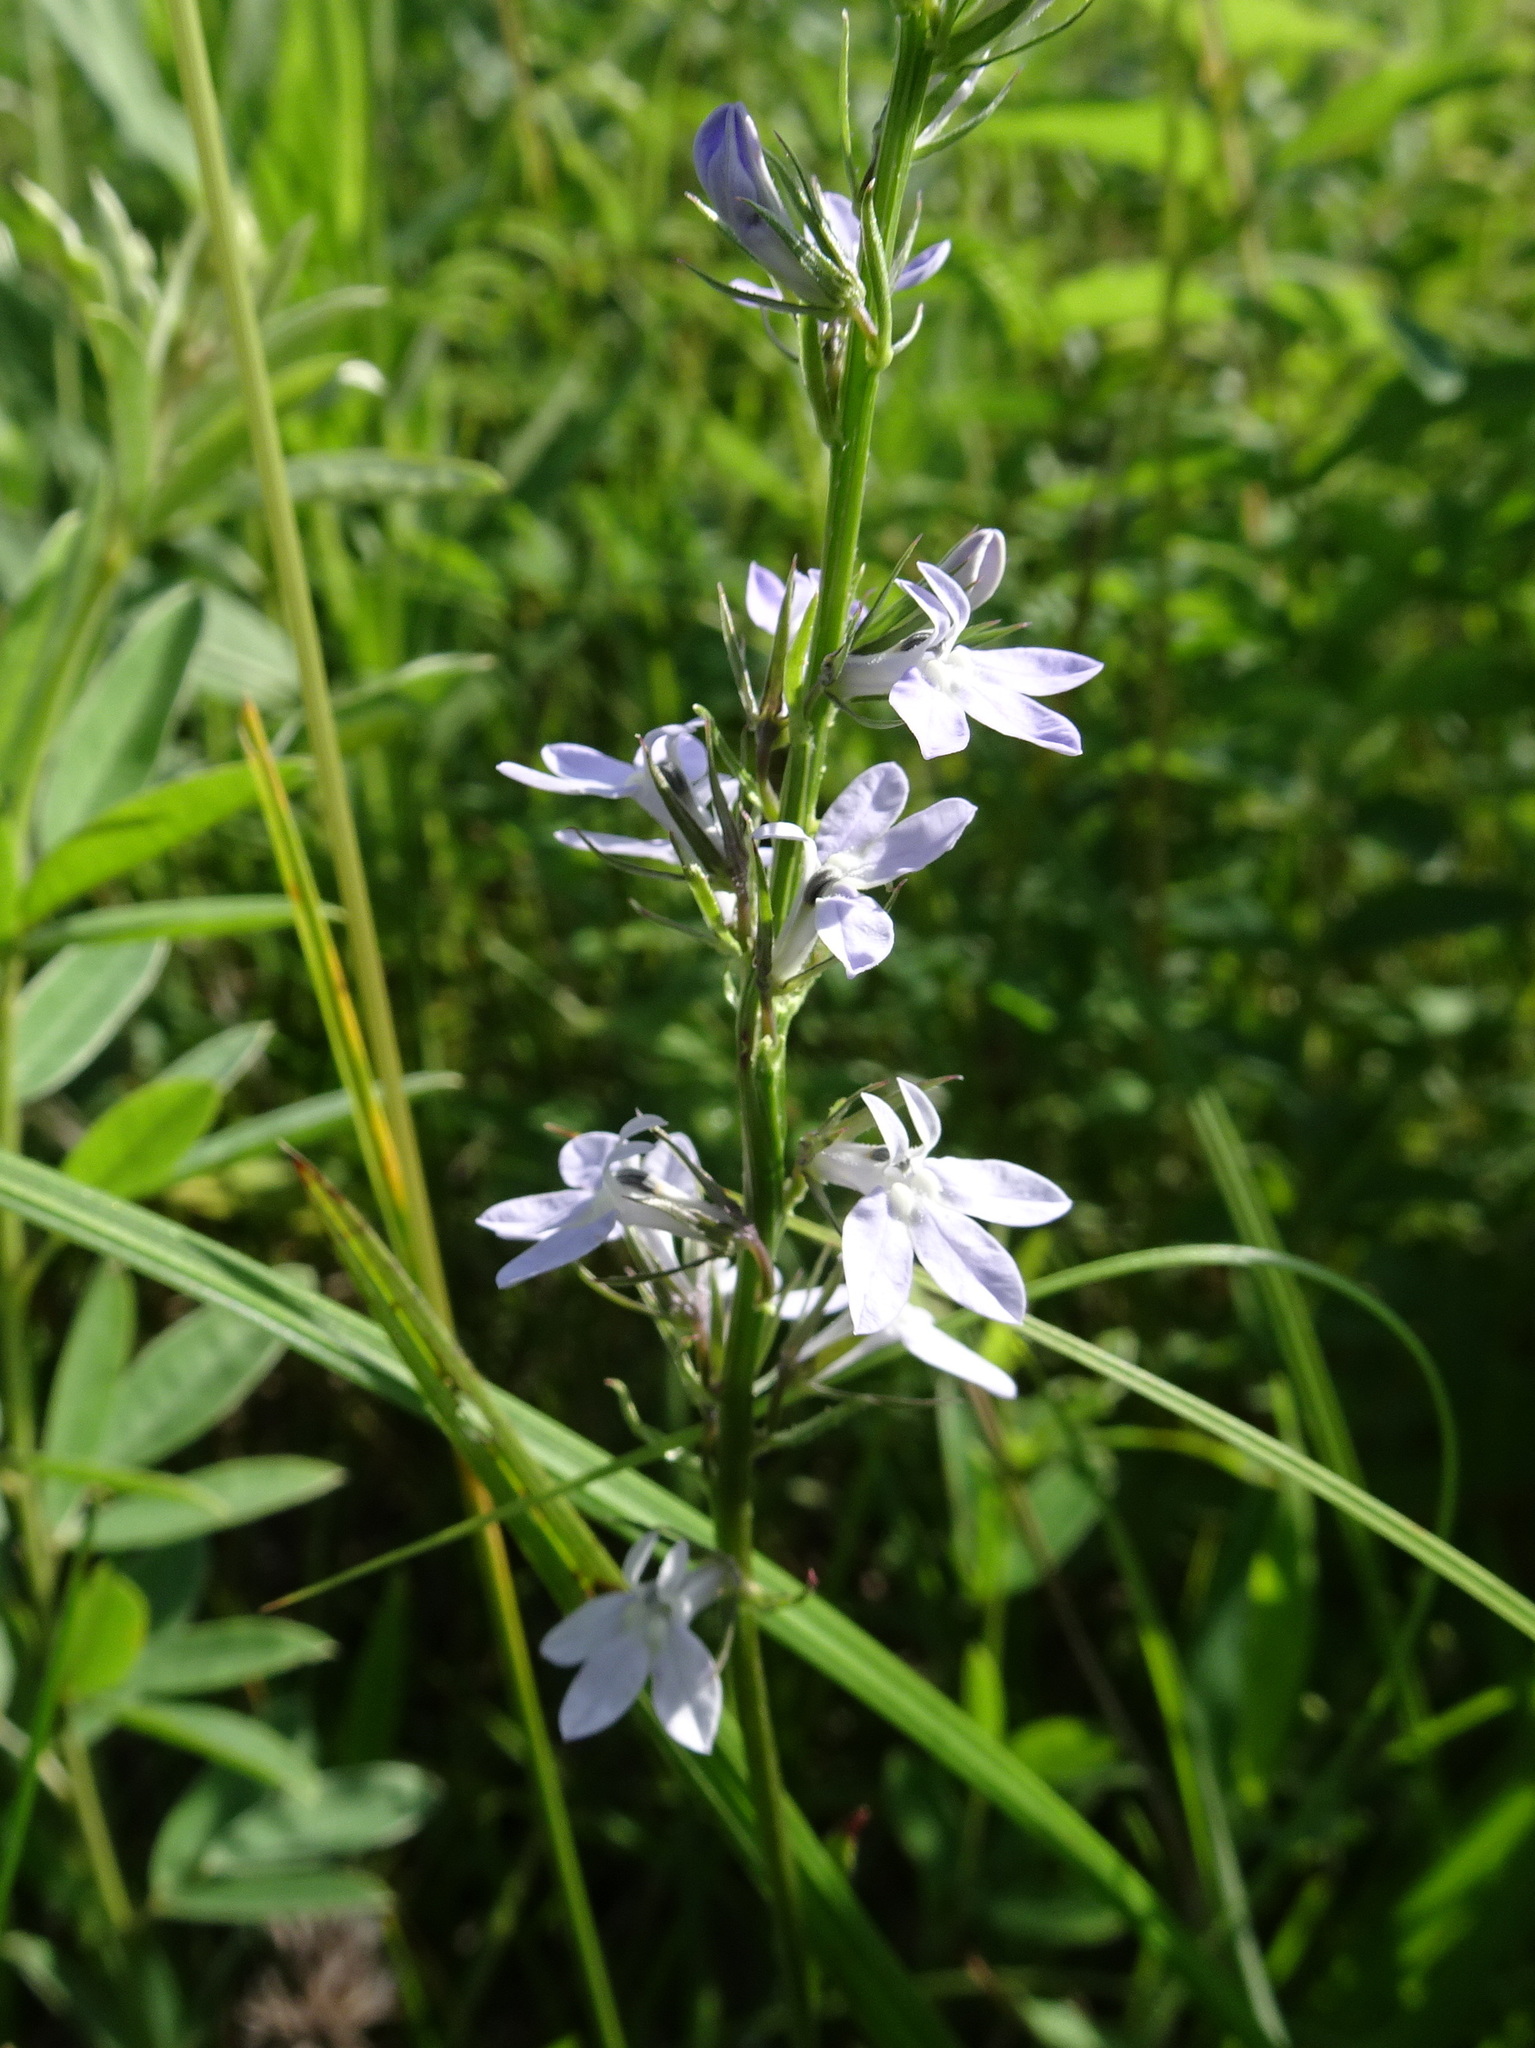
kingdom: Plantae
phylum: Tracheophyta
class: Magnoliopsida
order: Asterales
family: Campanulaceae
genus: Lobelia
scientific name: Lobelia spicata
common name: Pale-spike lobelia
